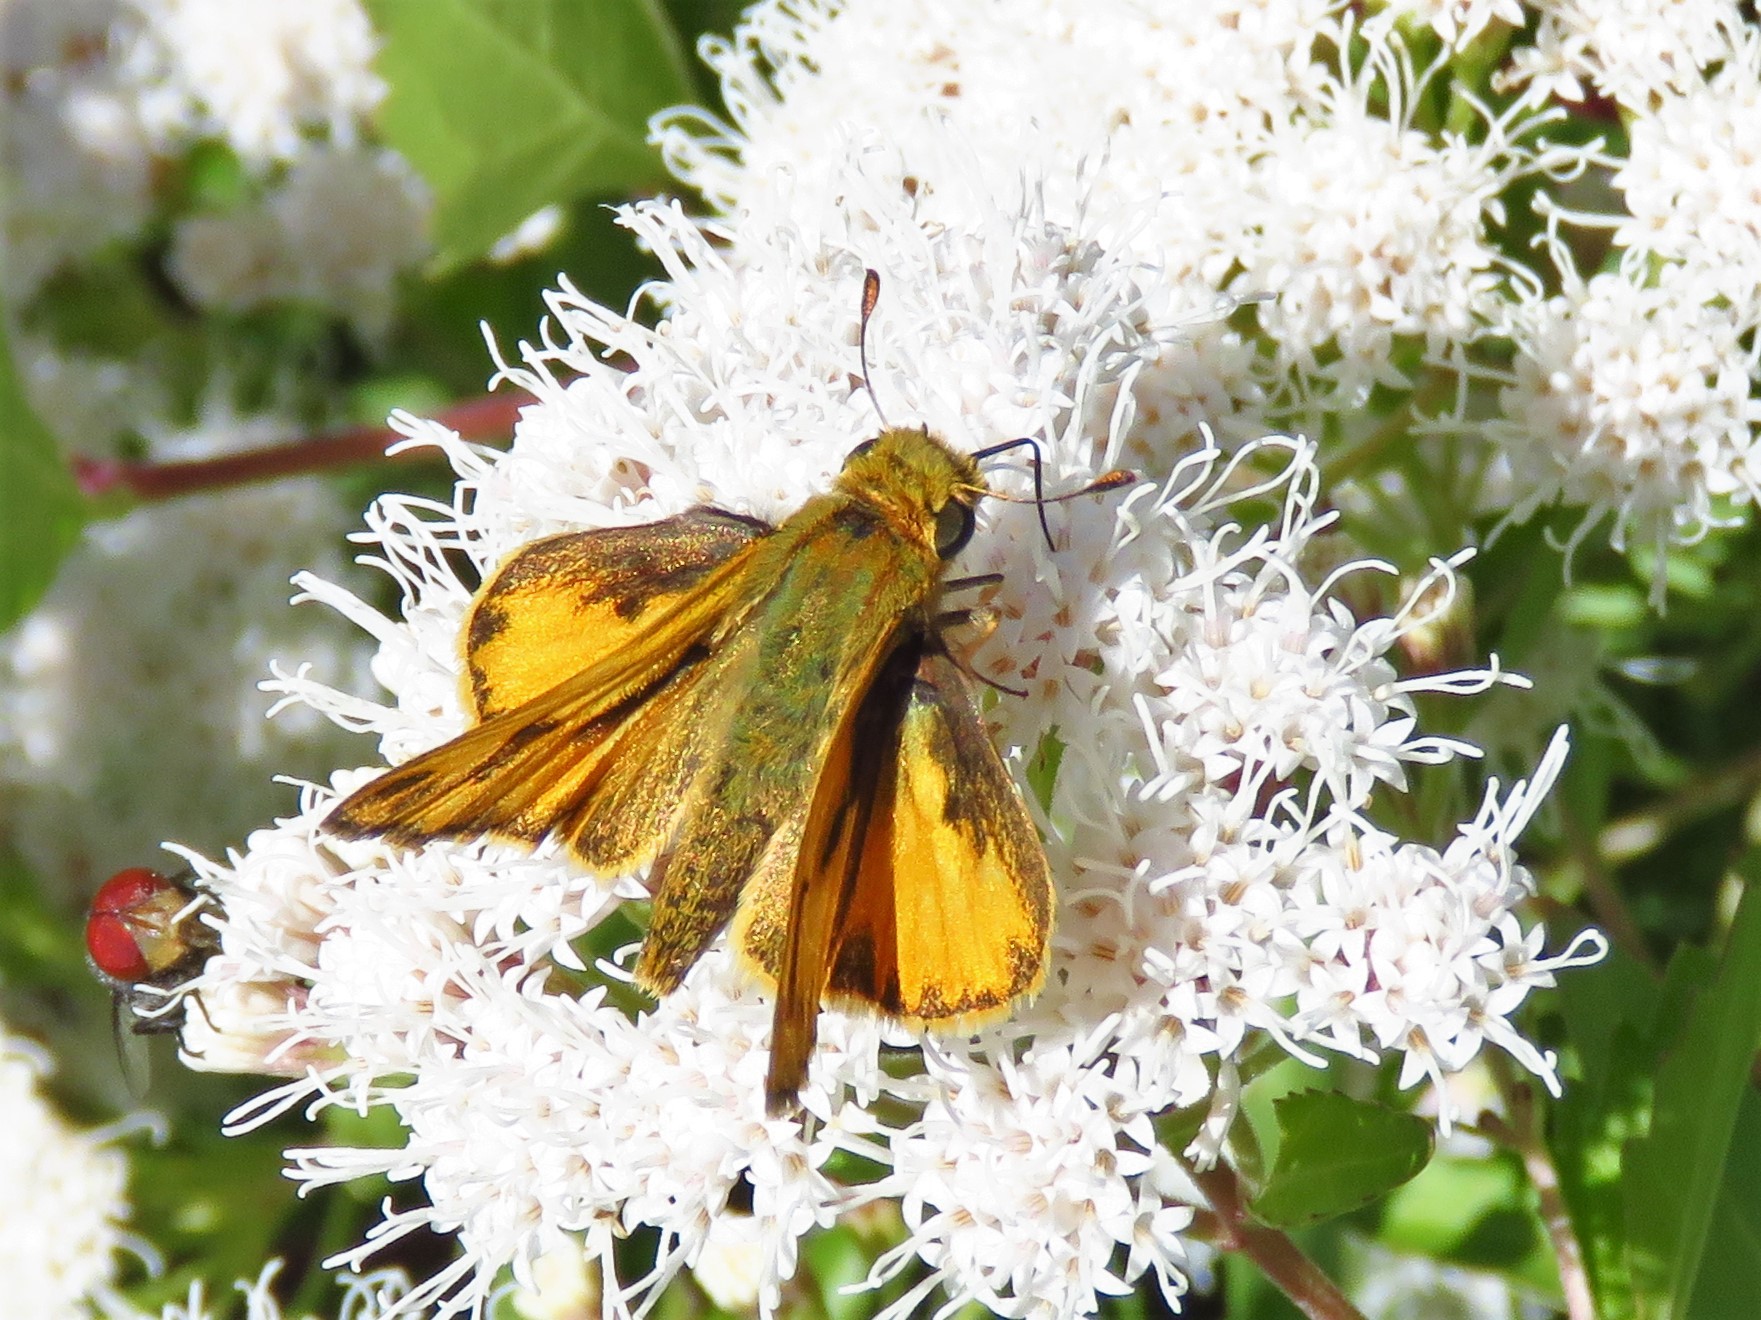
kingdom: Animalia
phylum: Arthropoda
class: Insecta
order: Lepidoptera
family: Hesperiidae
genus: Hylephila
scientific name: Hylephila phyleus
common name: Fiery skipper
